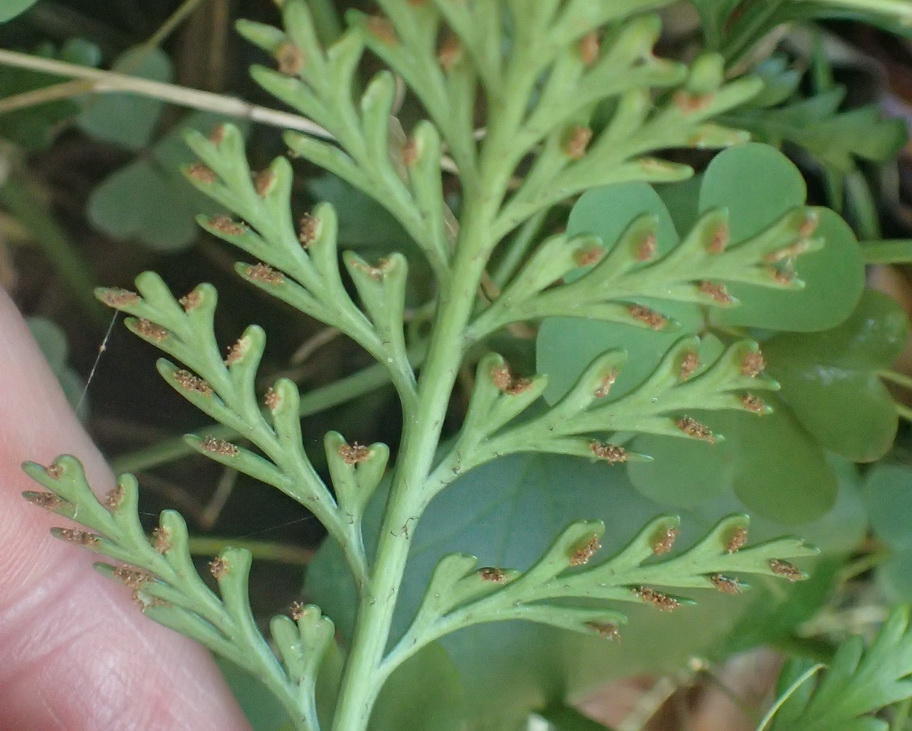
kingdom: Plantae
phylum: Tracheophyta
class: Polypodiopsida
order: Polypodiales
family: Aspleniaceae
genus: Asplenium
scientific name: Asplenium rutifolium
